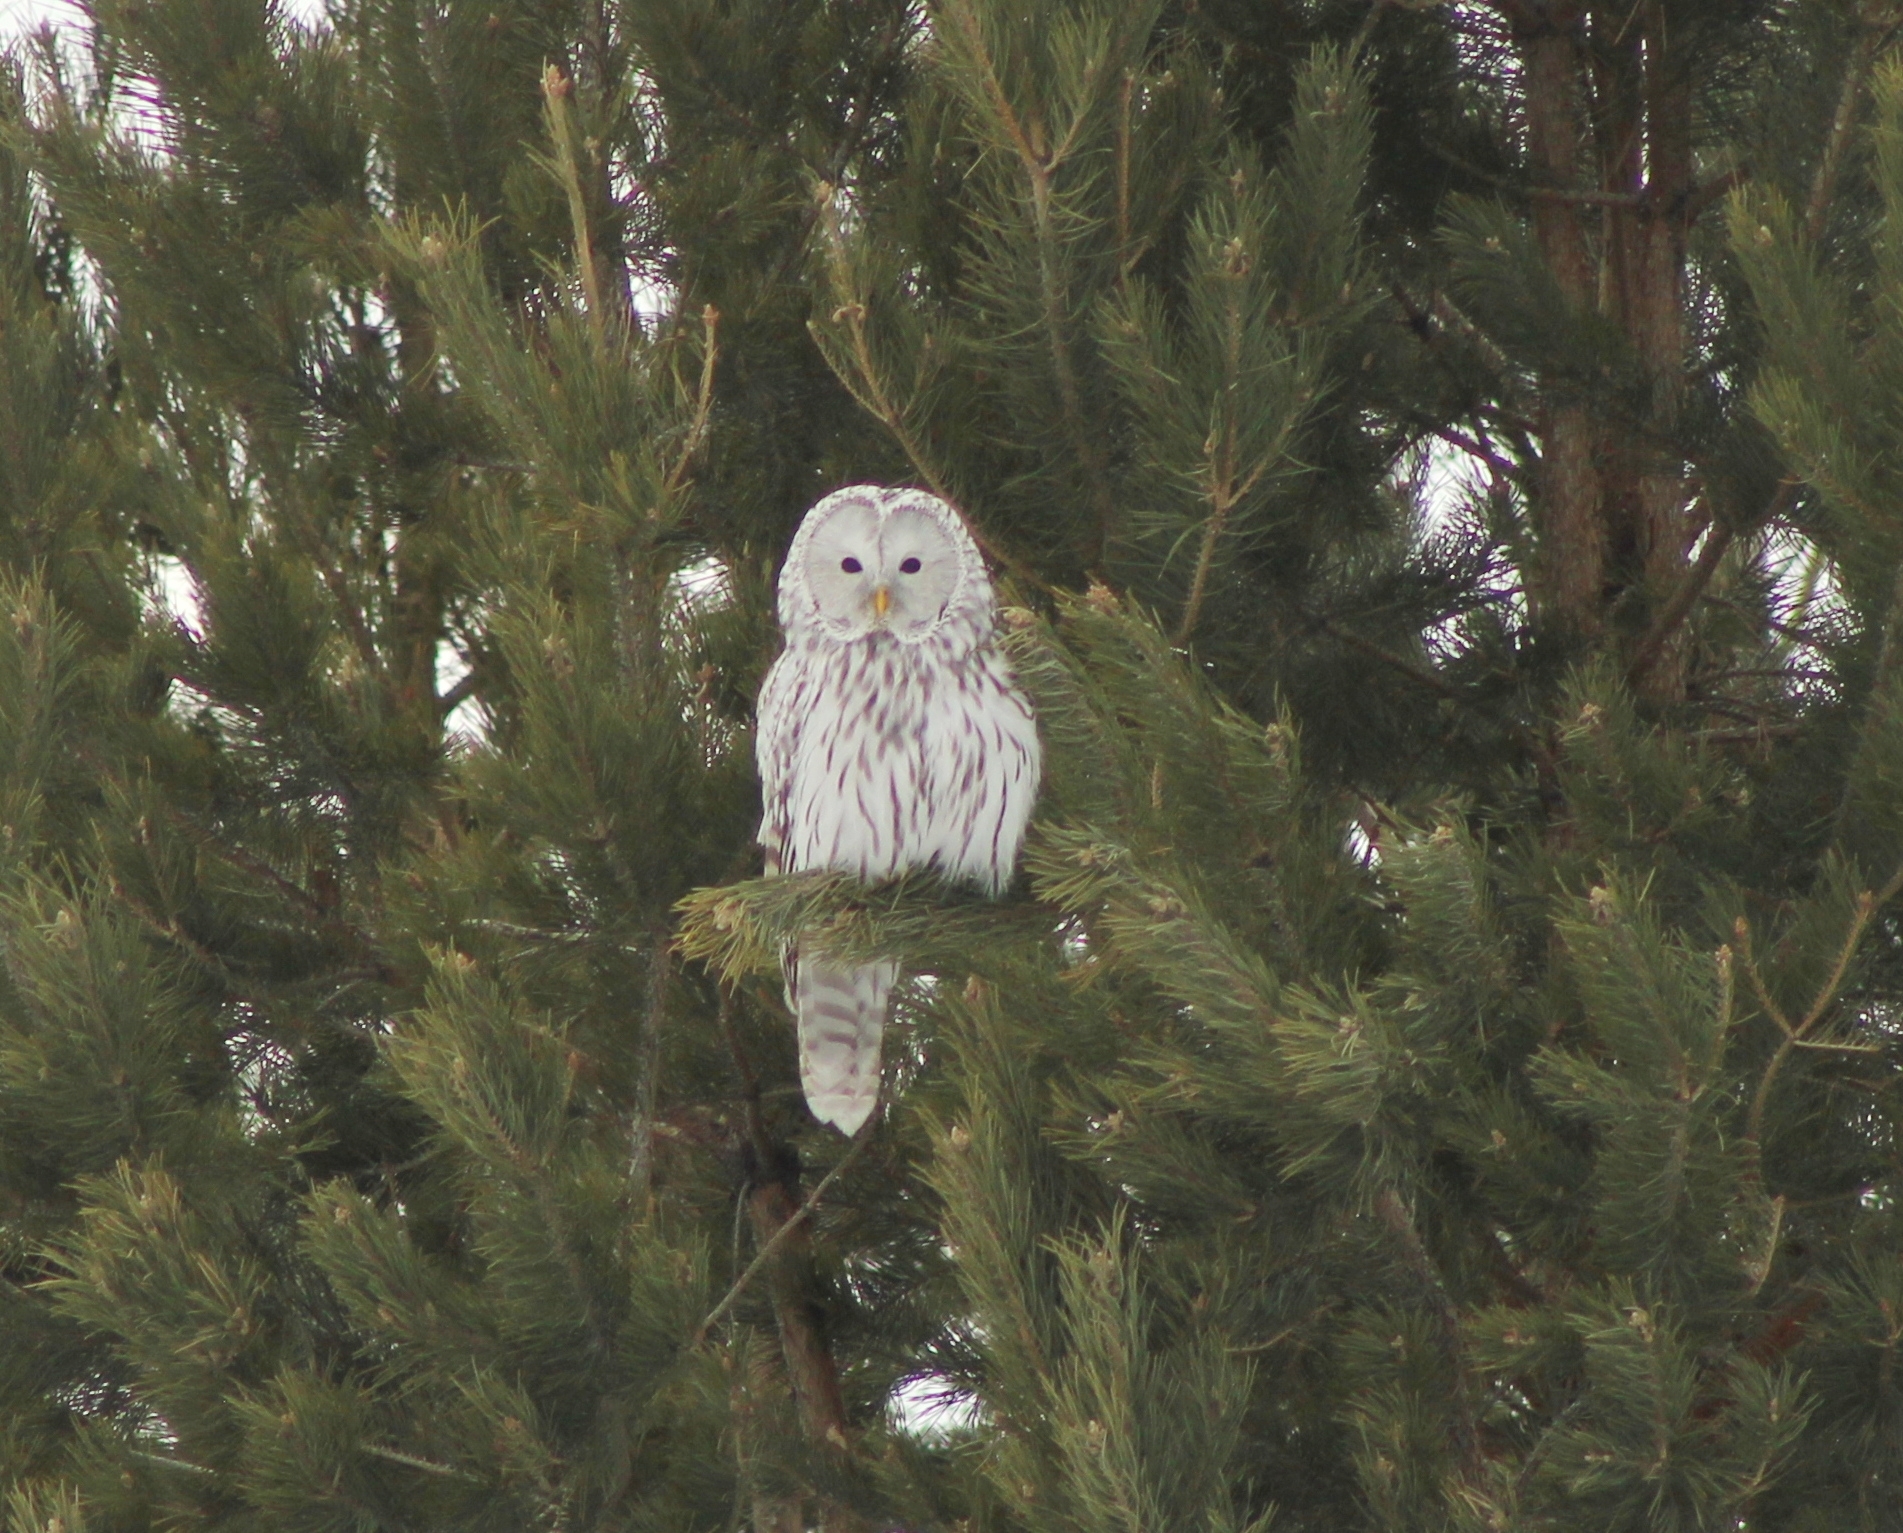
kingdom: Animalia
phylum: Chordata
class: Aves
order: Strigiformes
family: Strigidae
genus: Strix
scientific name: Strix uralensis
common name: Ural owl
